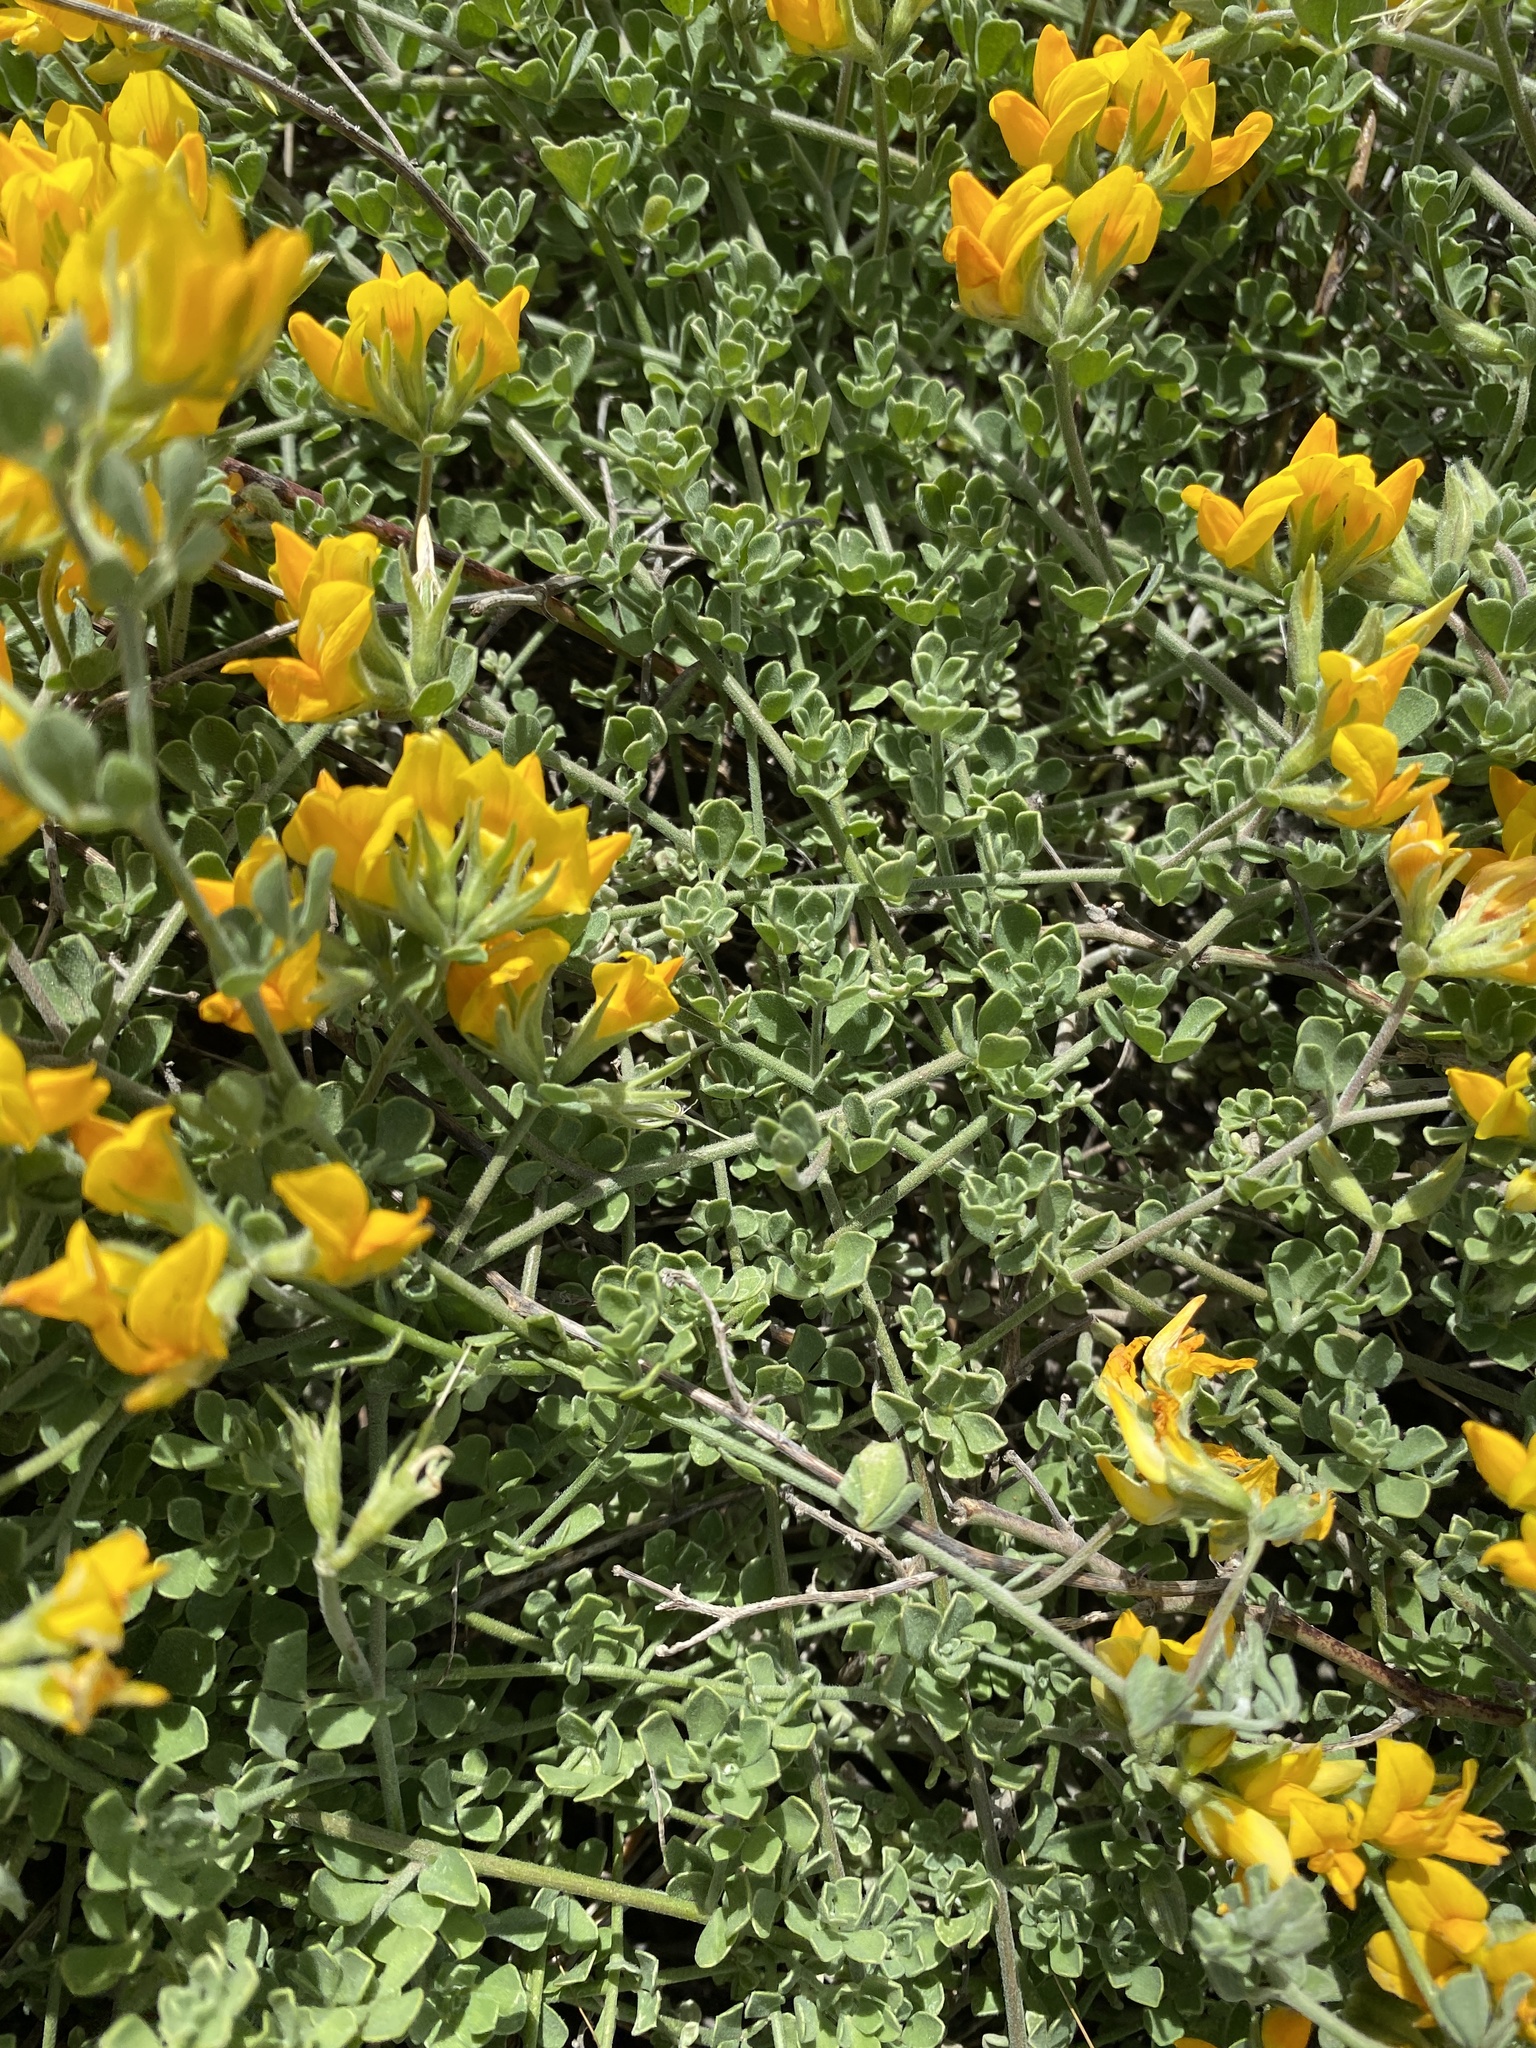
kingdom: Plantae
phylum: Tracheophyta
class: Magnoliopsida
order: Fabales
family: Fabaceae
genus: Lotus
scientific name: Lotus lancerottensis
